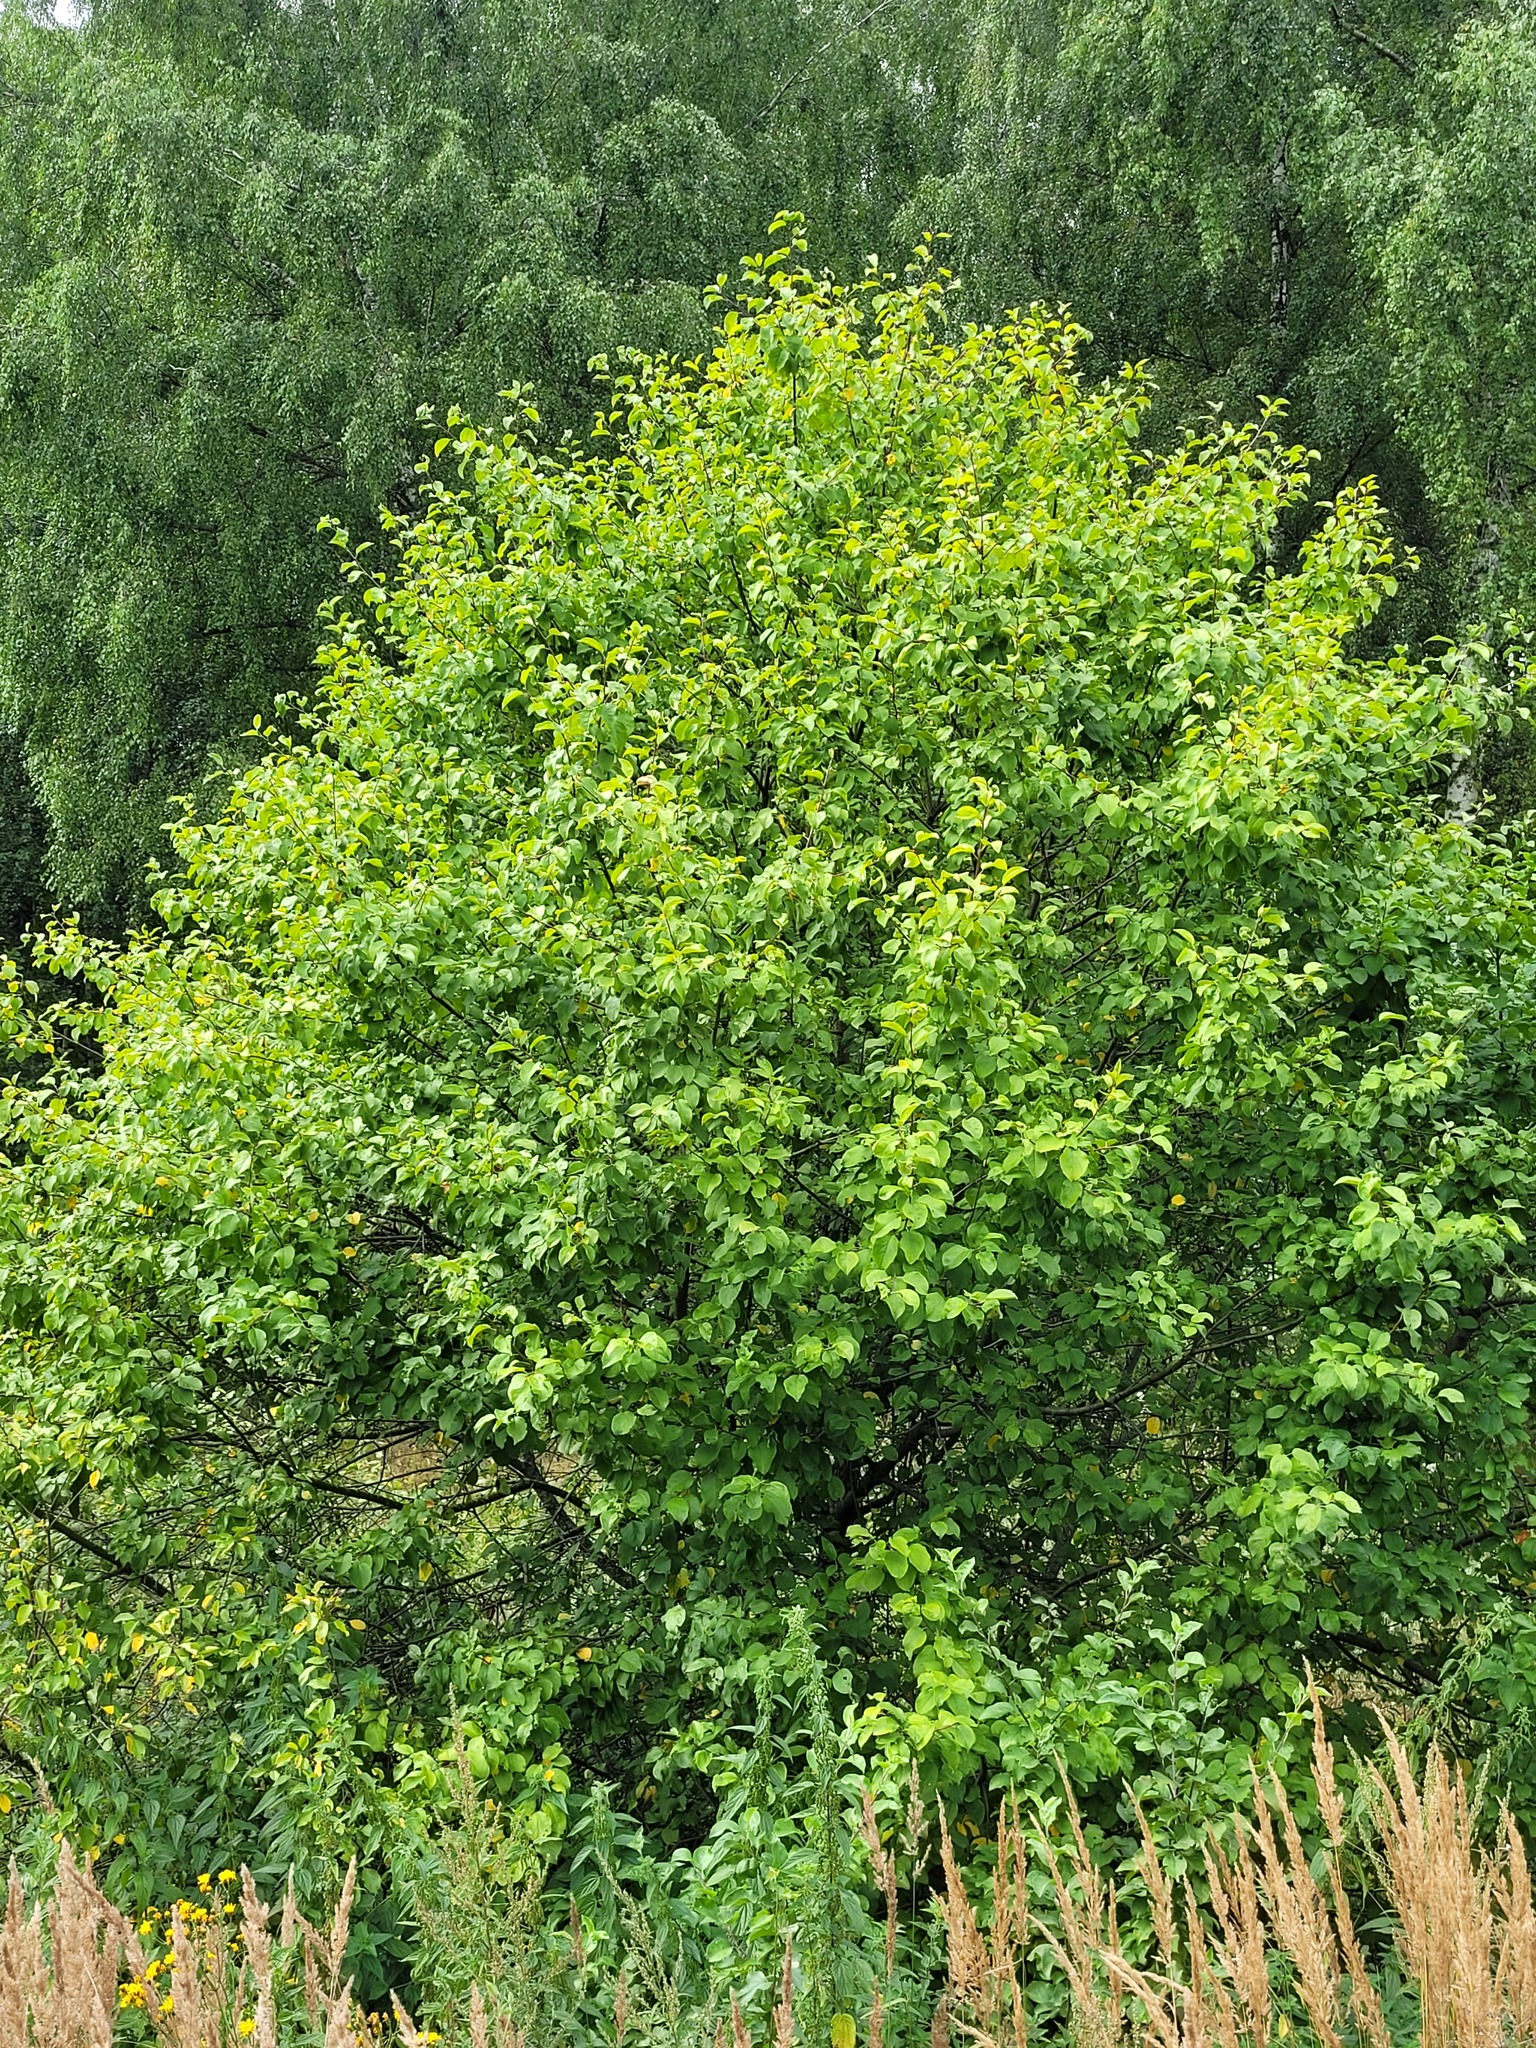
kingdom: Plantae
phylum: Tracheophyta
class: Magnoliopsida
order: Rosales
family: Rosaceae
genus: Malus
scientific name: Malus domestica
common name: Apple
